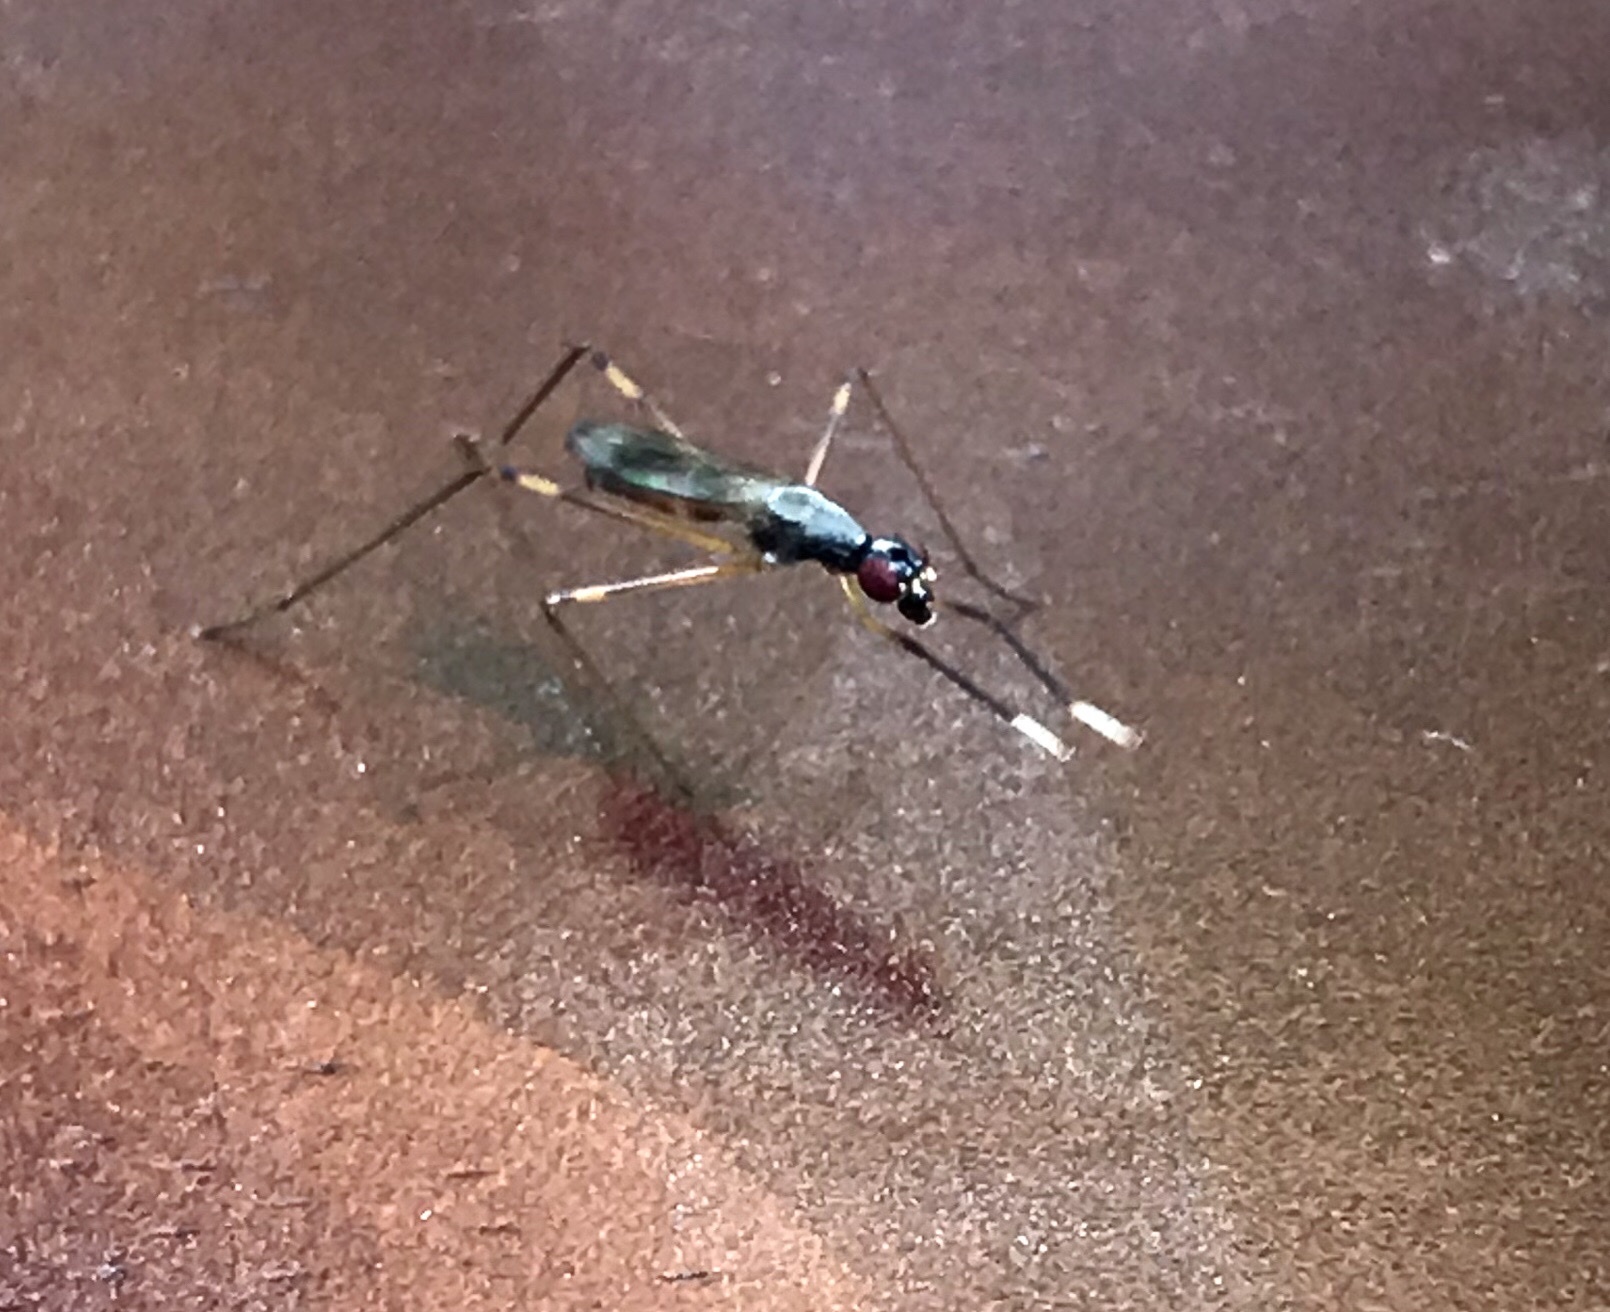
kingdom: Animalia
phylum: Arthropoda
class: Insecta
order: Diptera
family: Micropezidae
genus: Rainieria
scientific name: Rainieria antennaepes
